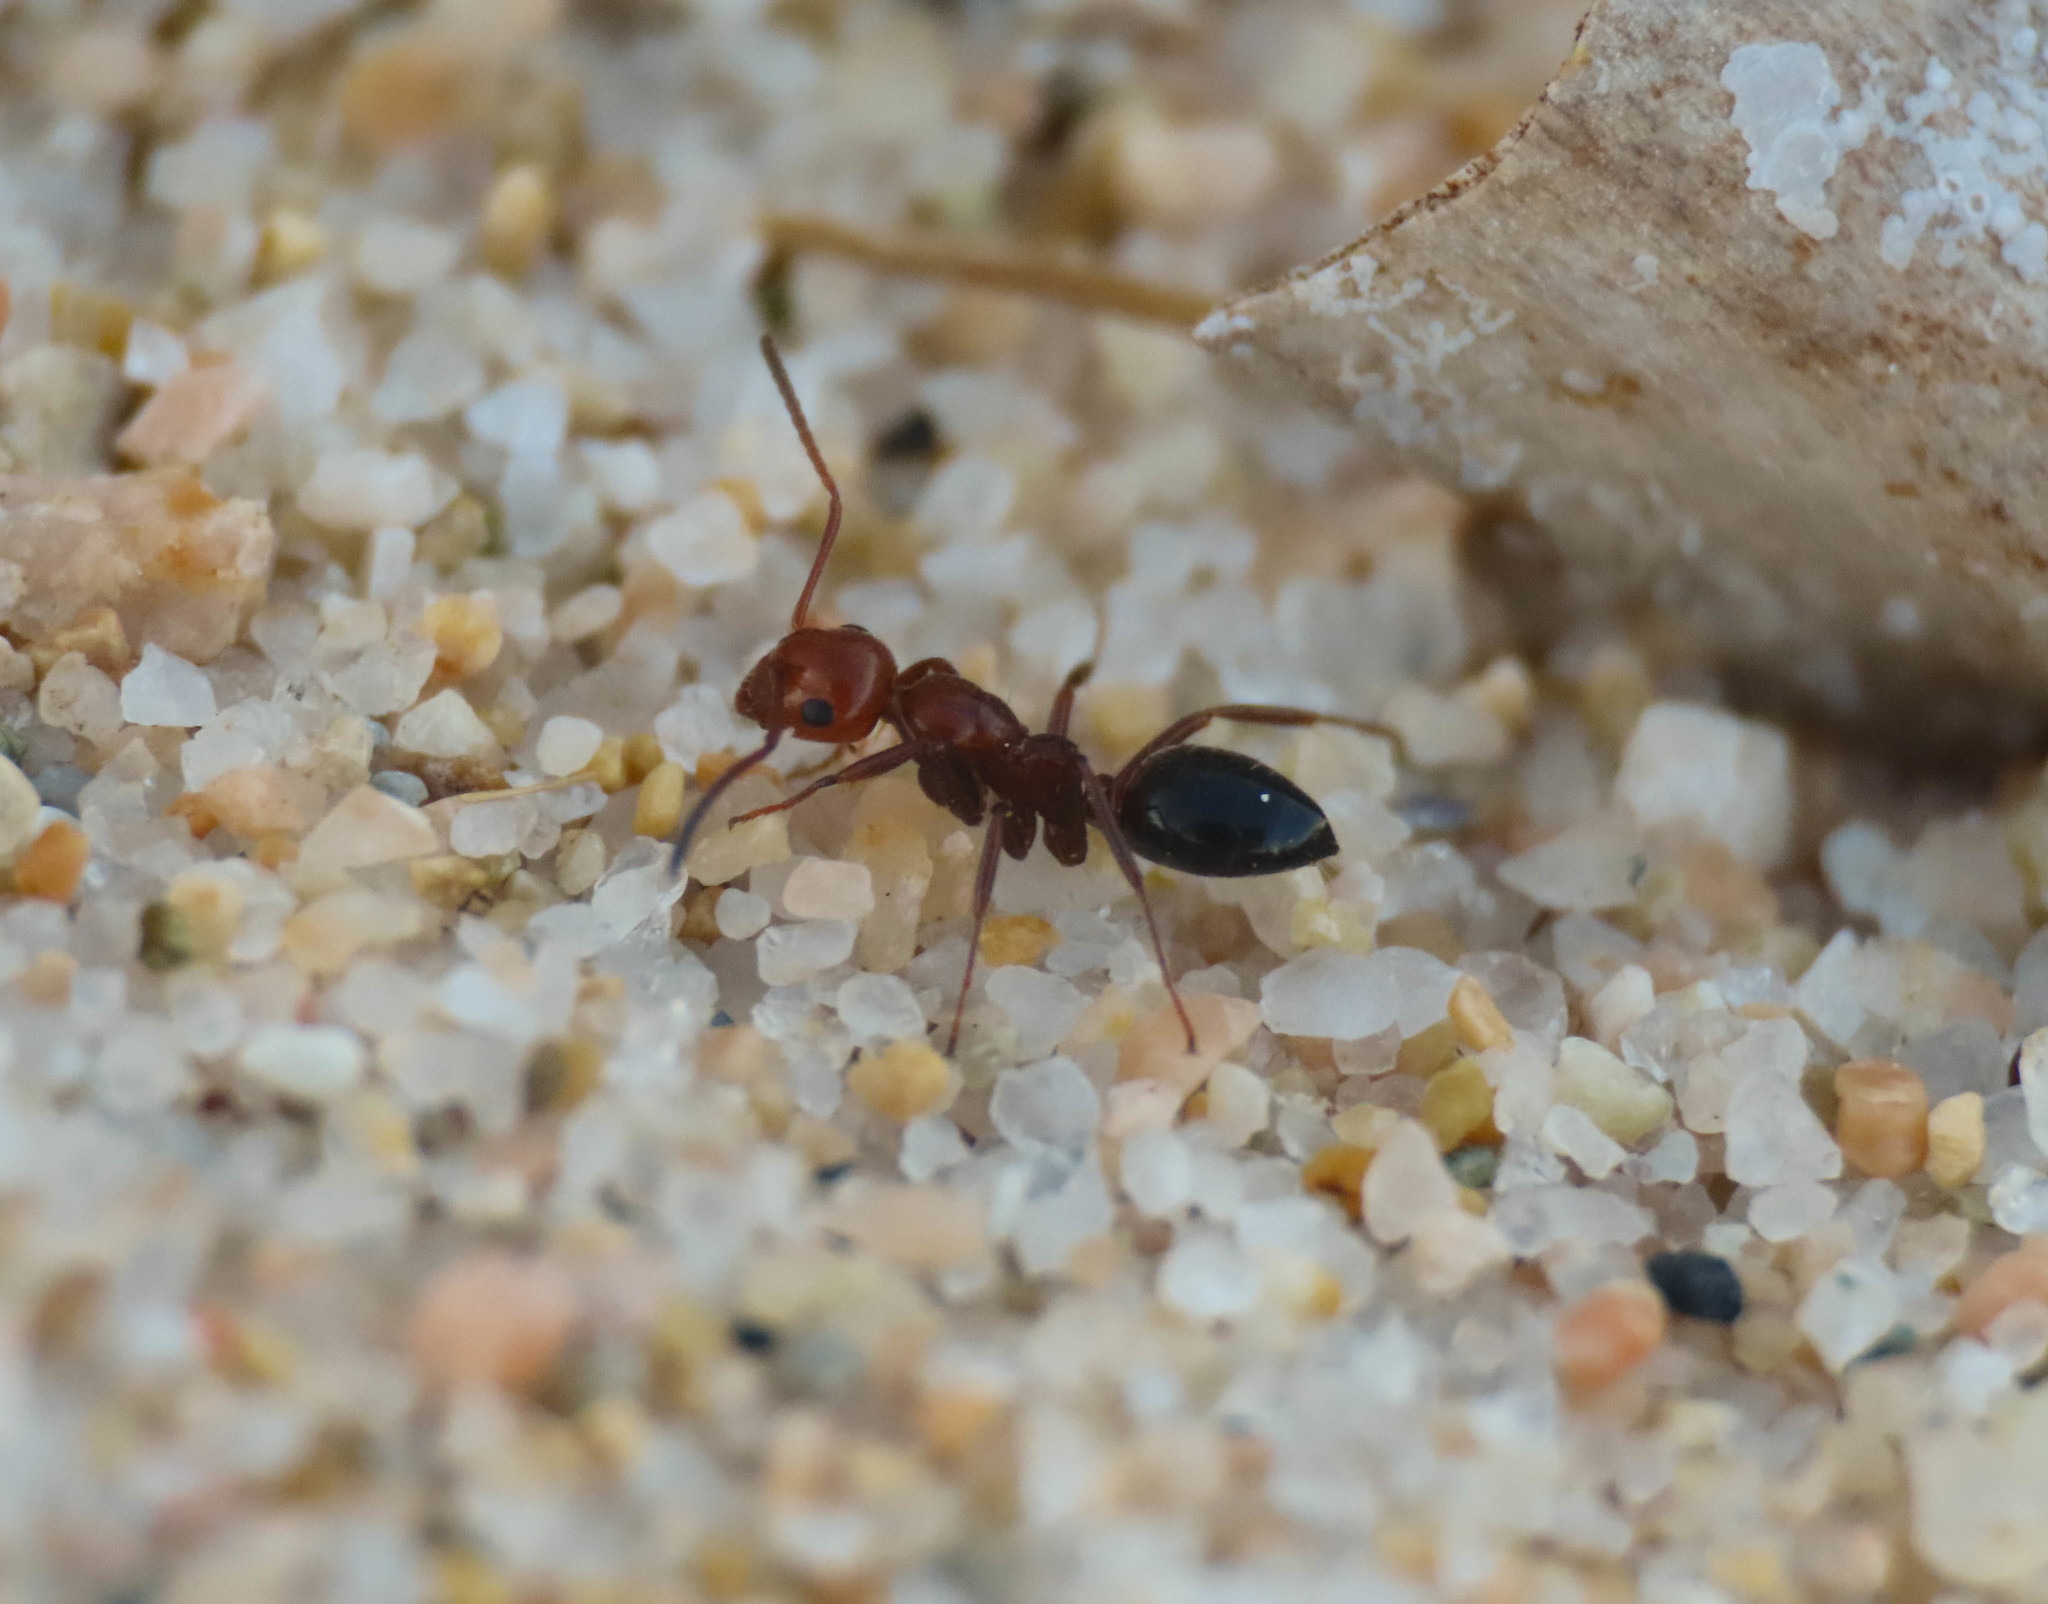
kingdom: Animalia
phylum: Arthropoda
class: Insecta
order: Hymenoptera
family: Formicidae
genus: Camponotus
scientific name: Camponotus lateralis
